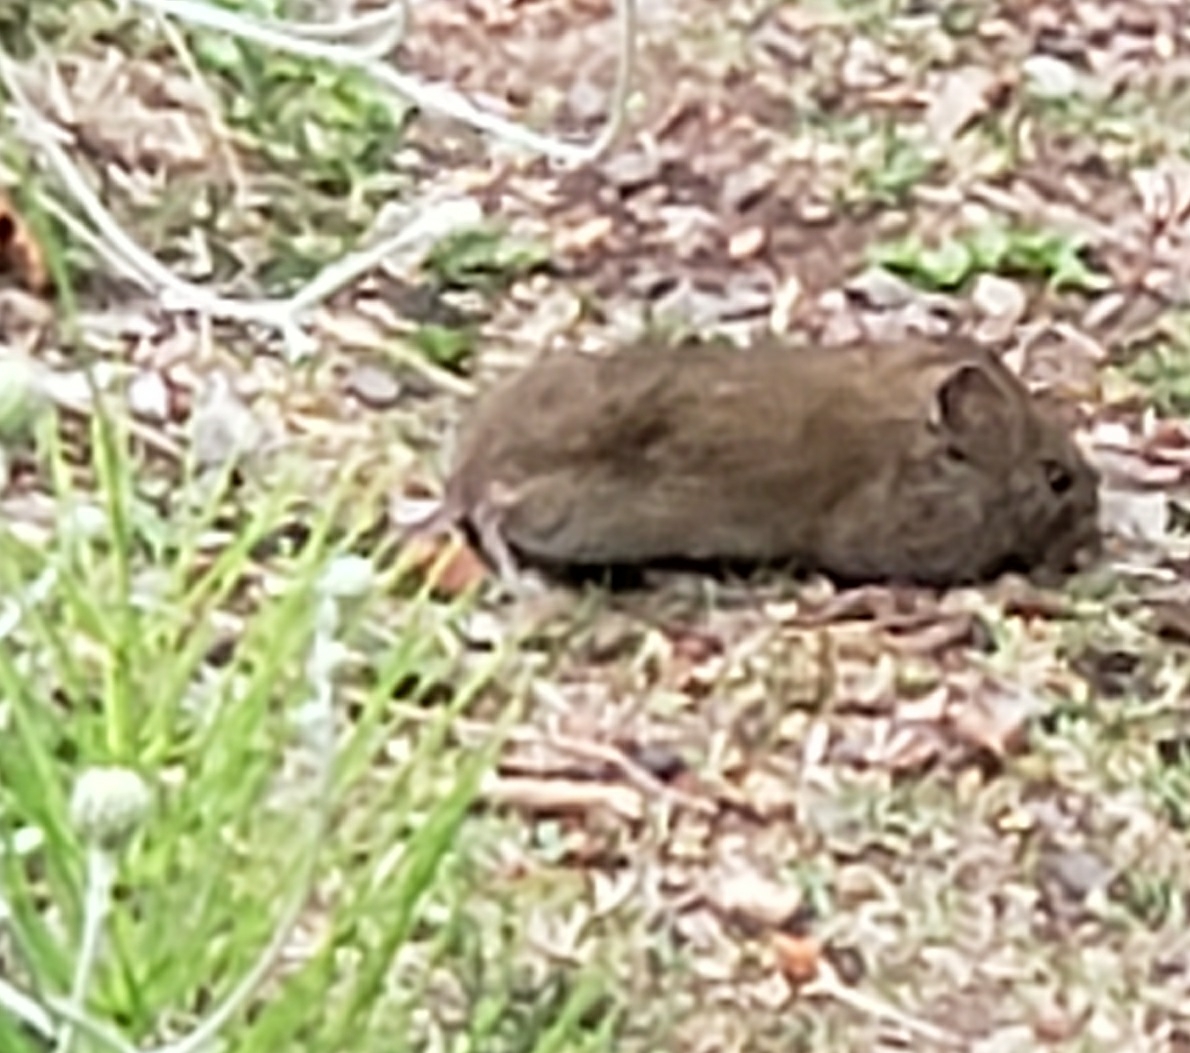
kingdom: Animalia
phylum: Chordata
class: Mammalia
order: Rodentia
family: Cricetidae
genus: Microtus
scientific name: Microtus californicus
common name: California vole
